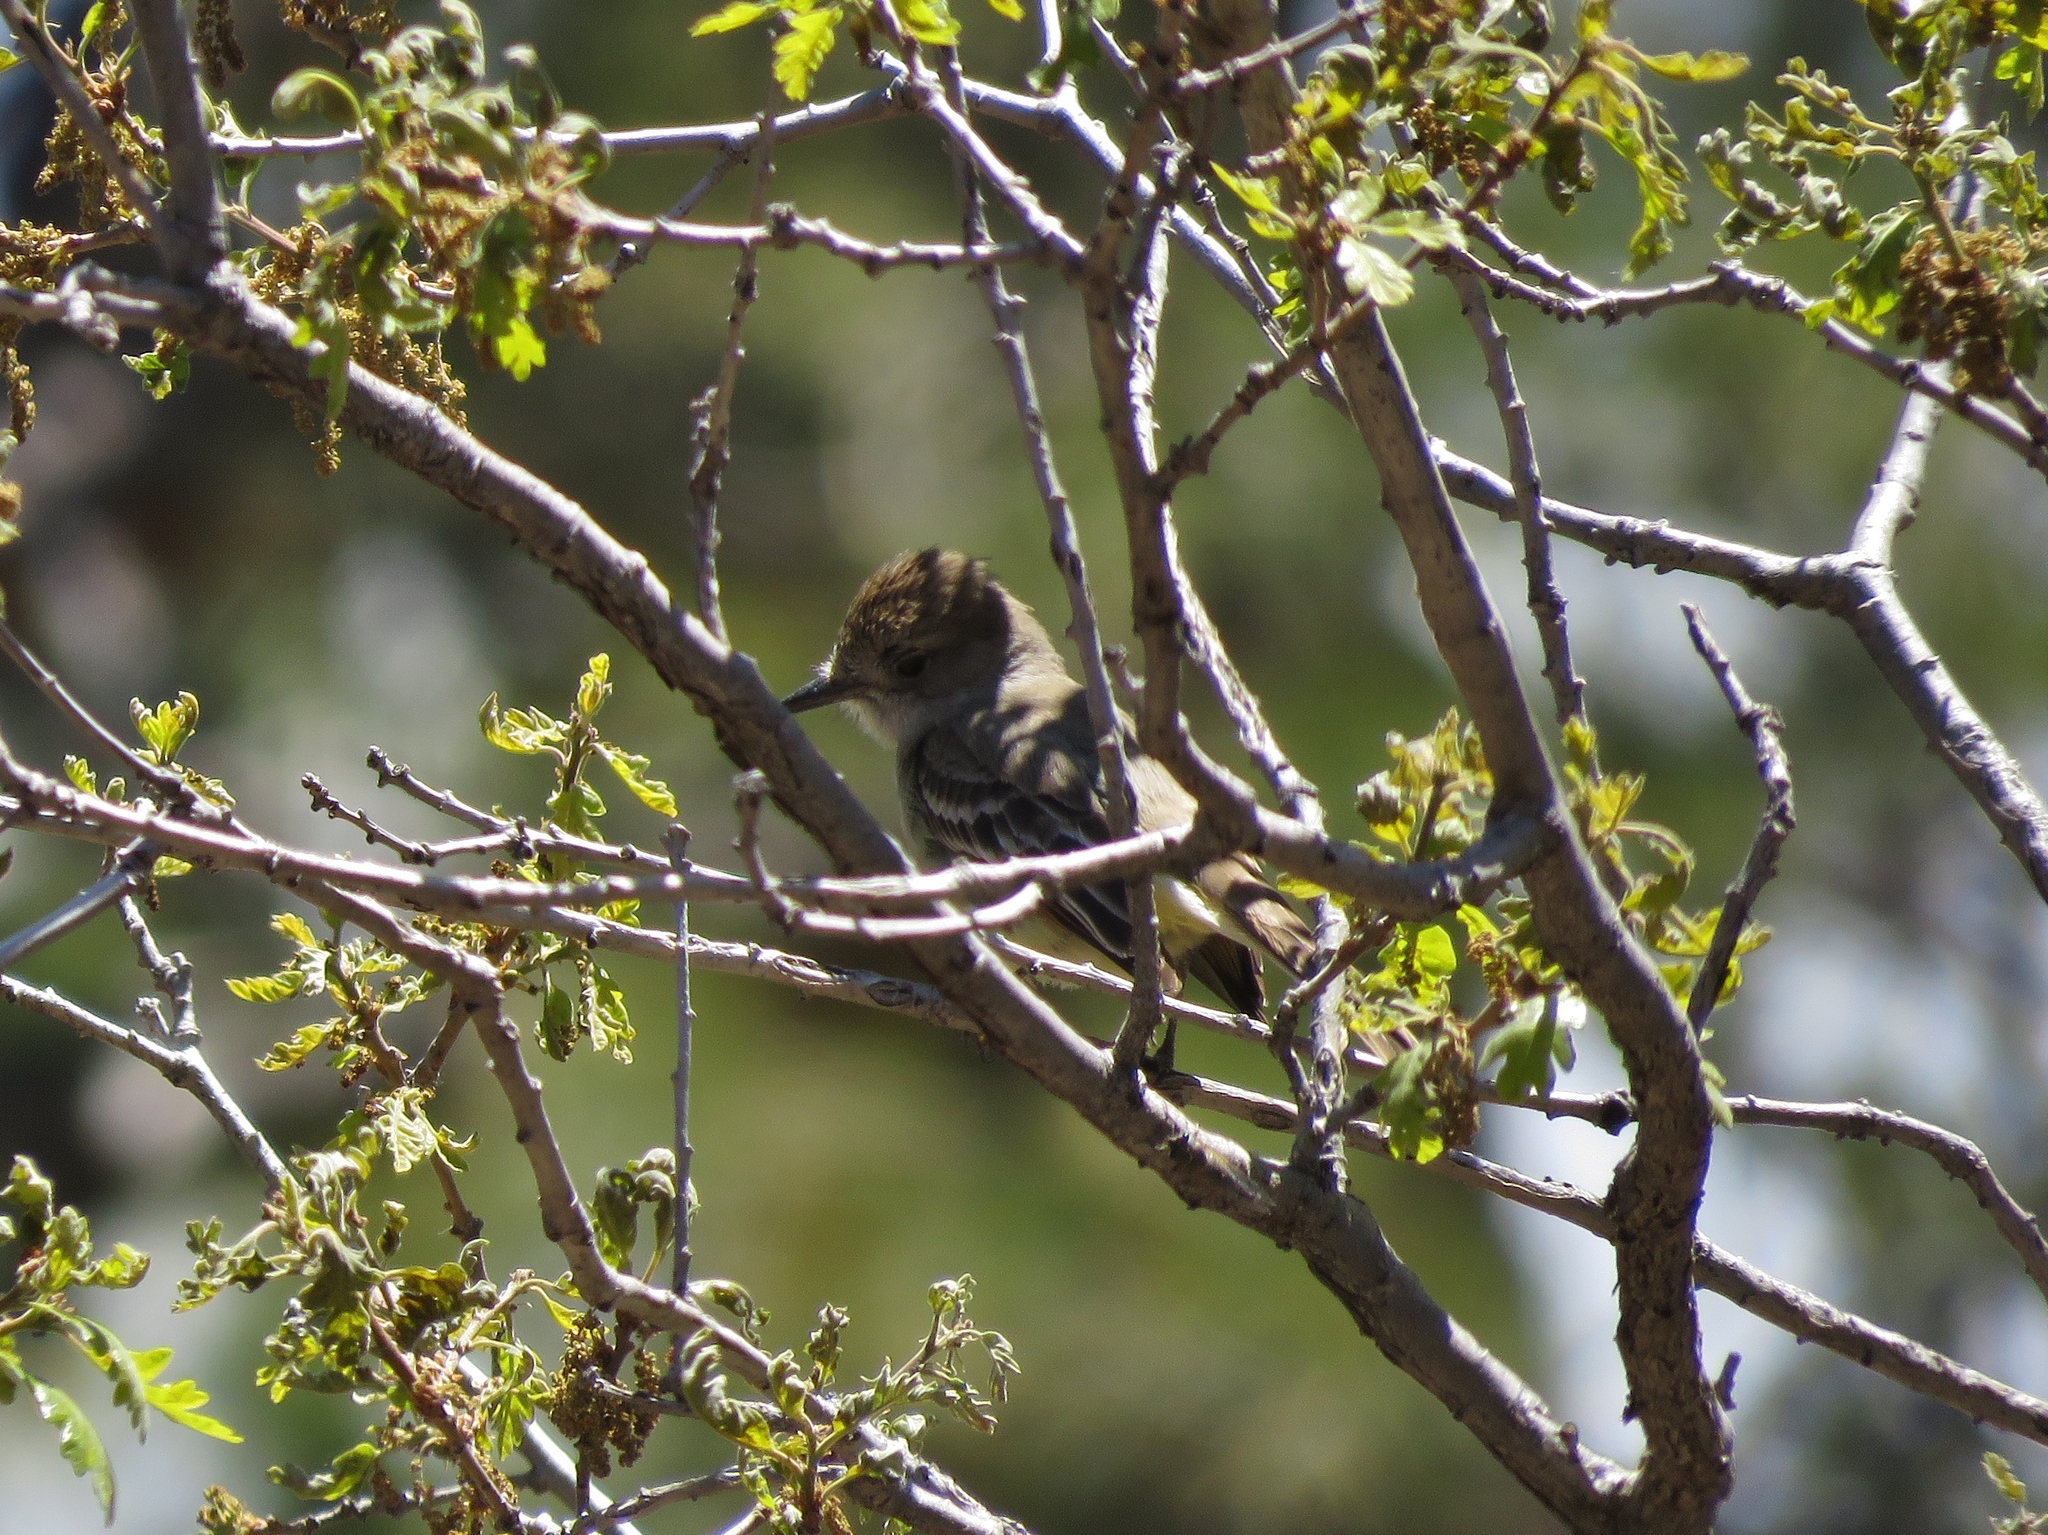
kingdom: Animalia
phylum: Chordata
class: Aves
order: Passeriformes
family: Tyrannidae
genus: Myiarchus
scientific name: Myiarchus cinerascens
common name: Ash-throated flycatcher
